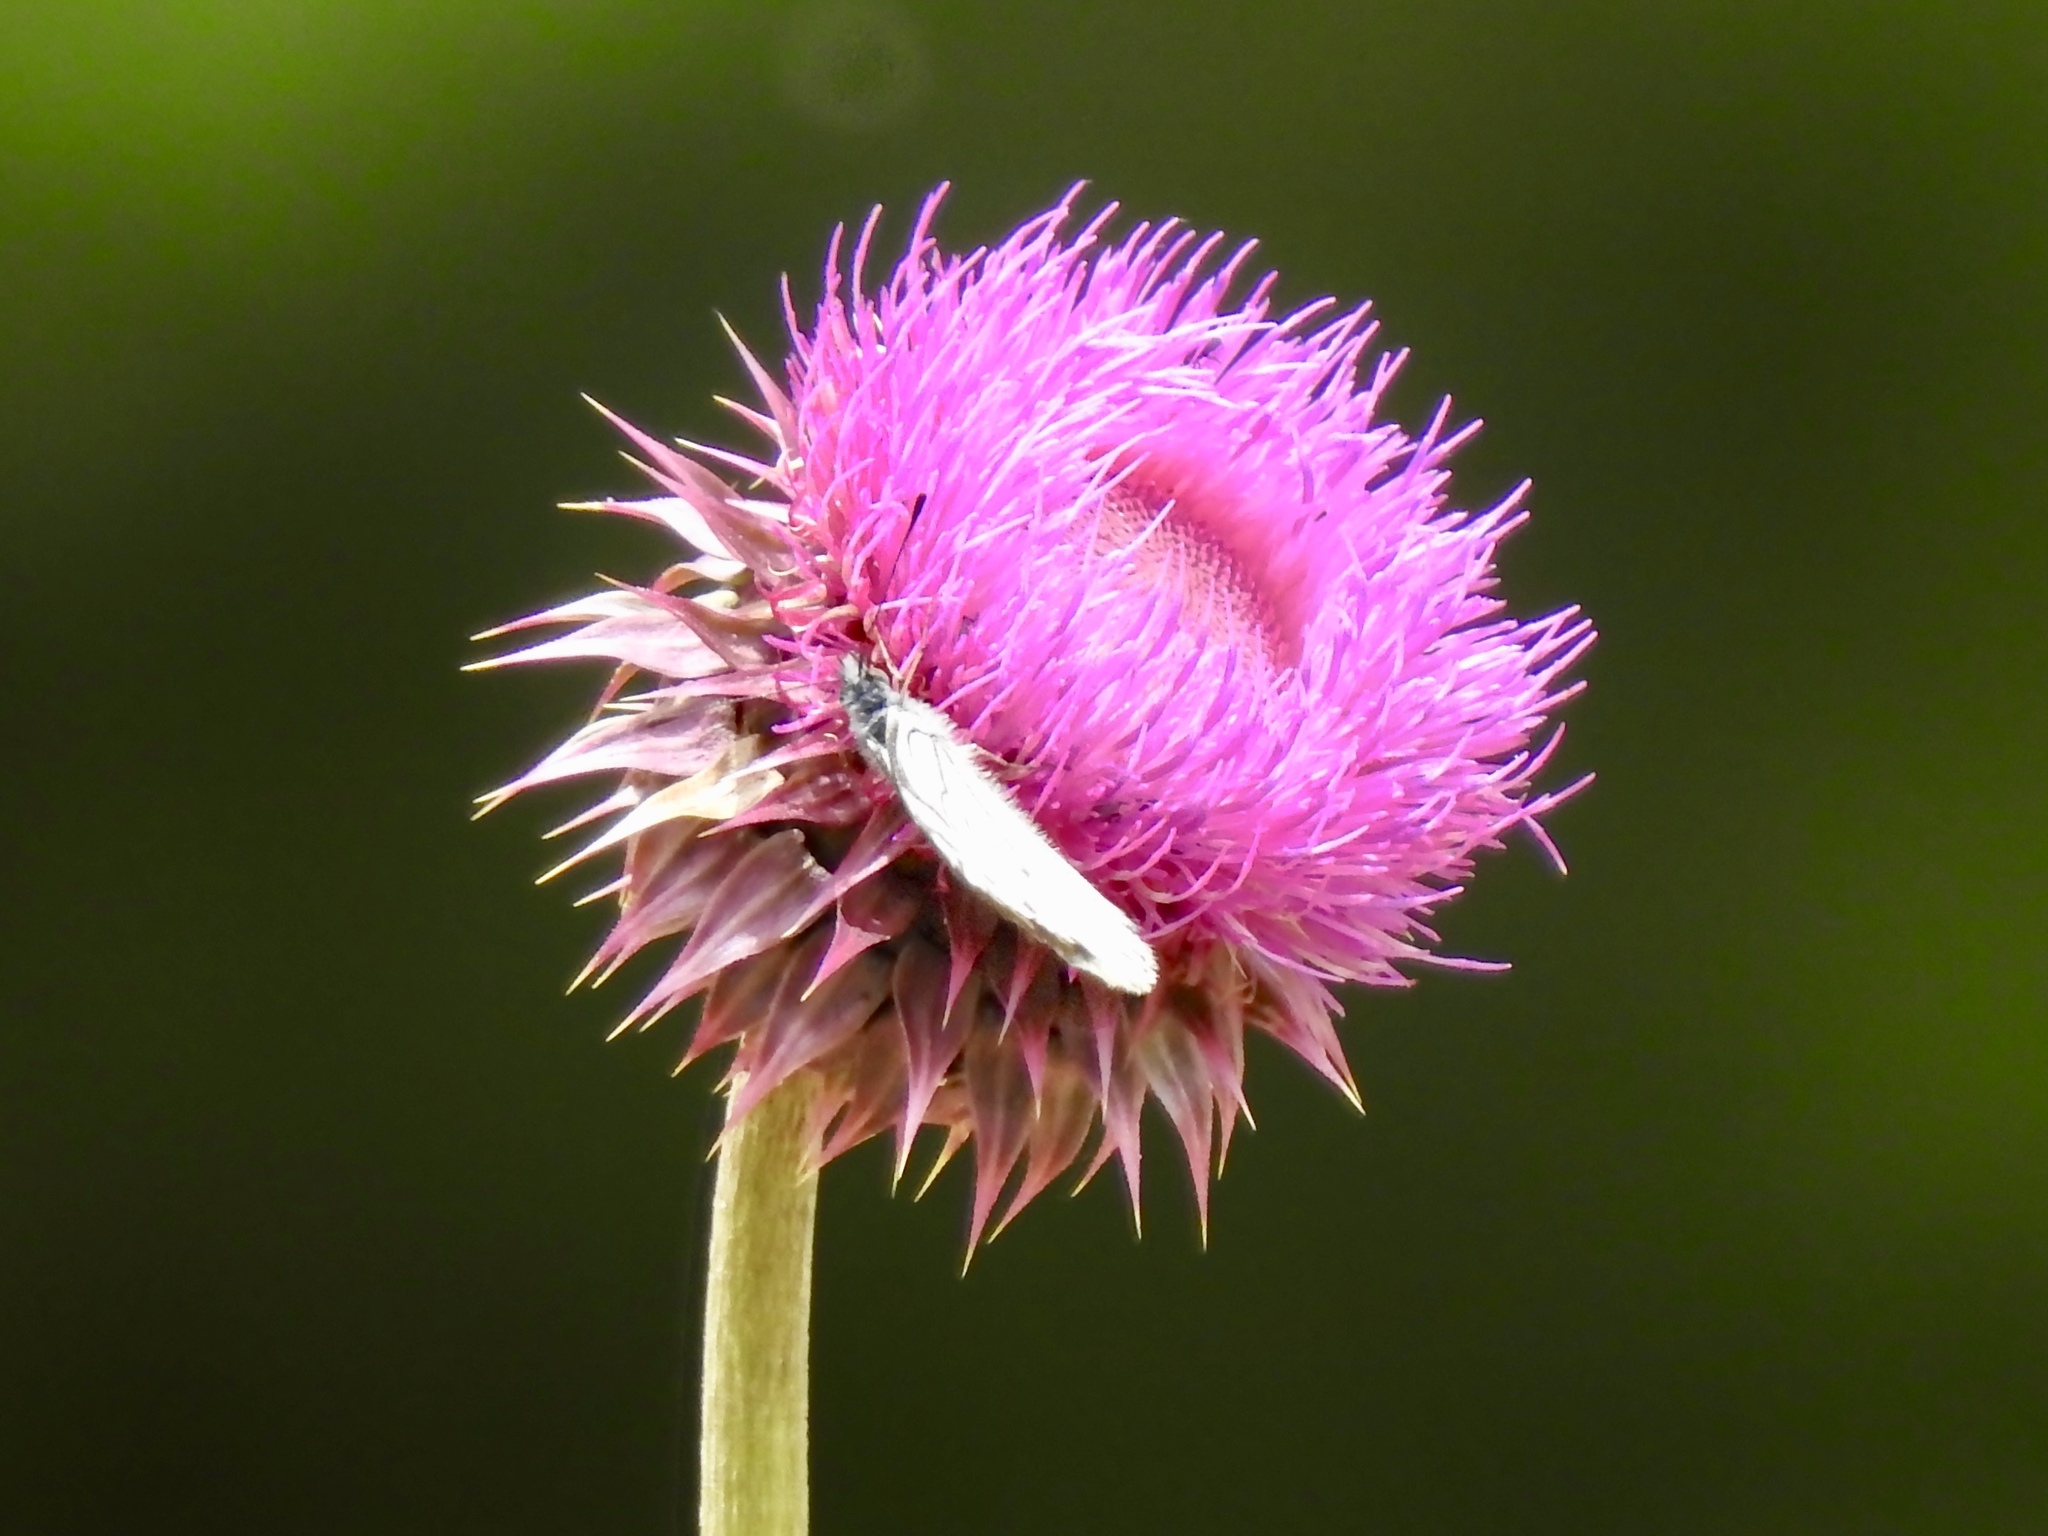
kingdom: Animalia
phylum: Arthropoda
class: Insecta
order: Lepidoptera
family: Pieridae
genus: Neophasia
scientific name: Neophasia menapia
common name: Pine white
